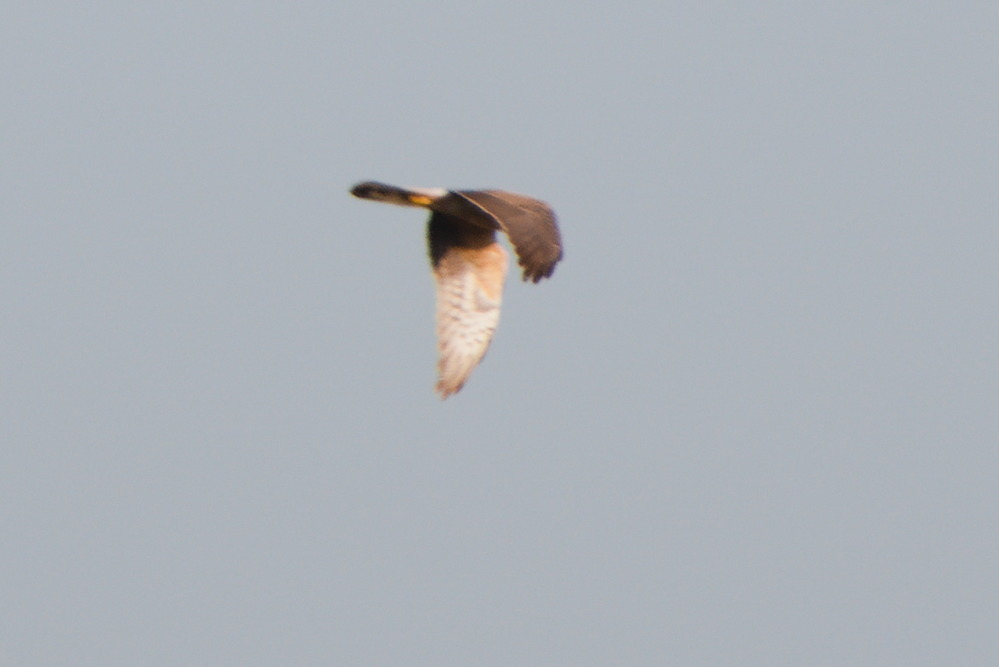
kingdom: Animalia
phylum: Chordata
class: Aves
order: Accipitriformes
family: Accipitridae
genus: Circus
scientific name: Circus pygargus
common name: Montagu's harrier
